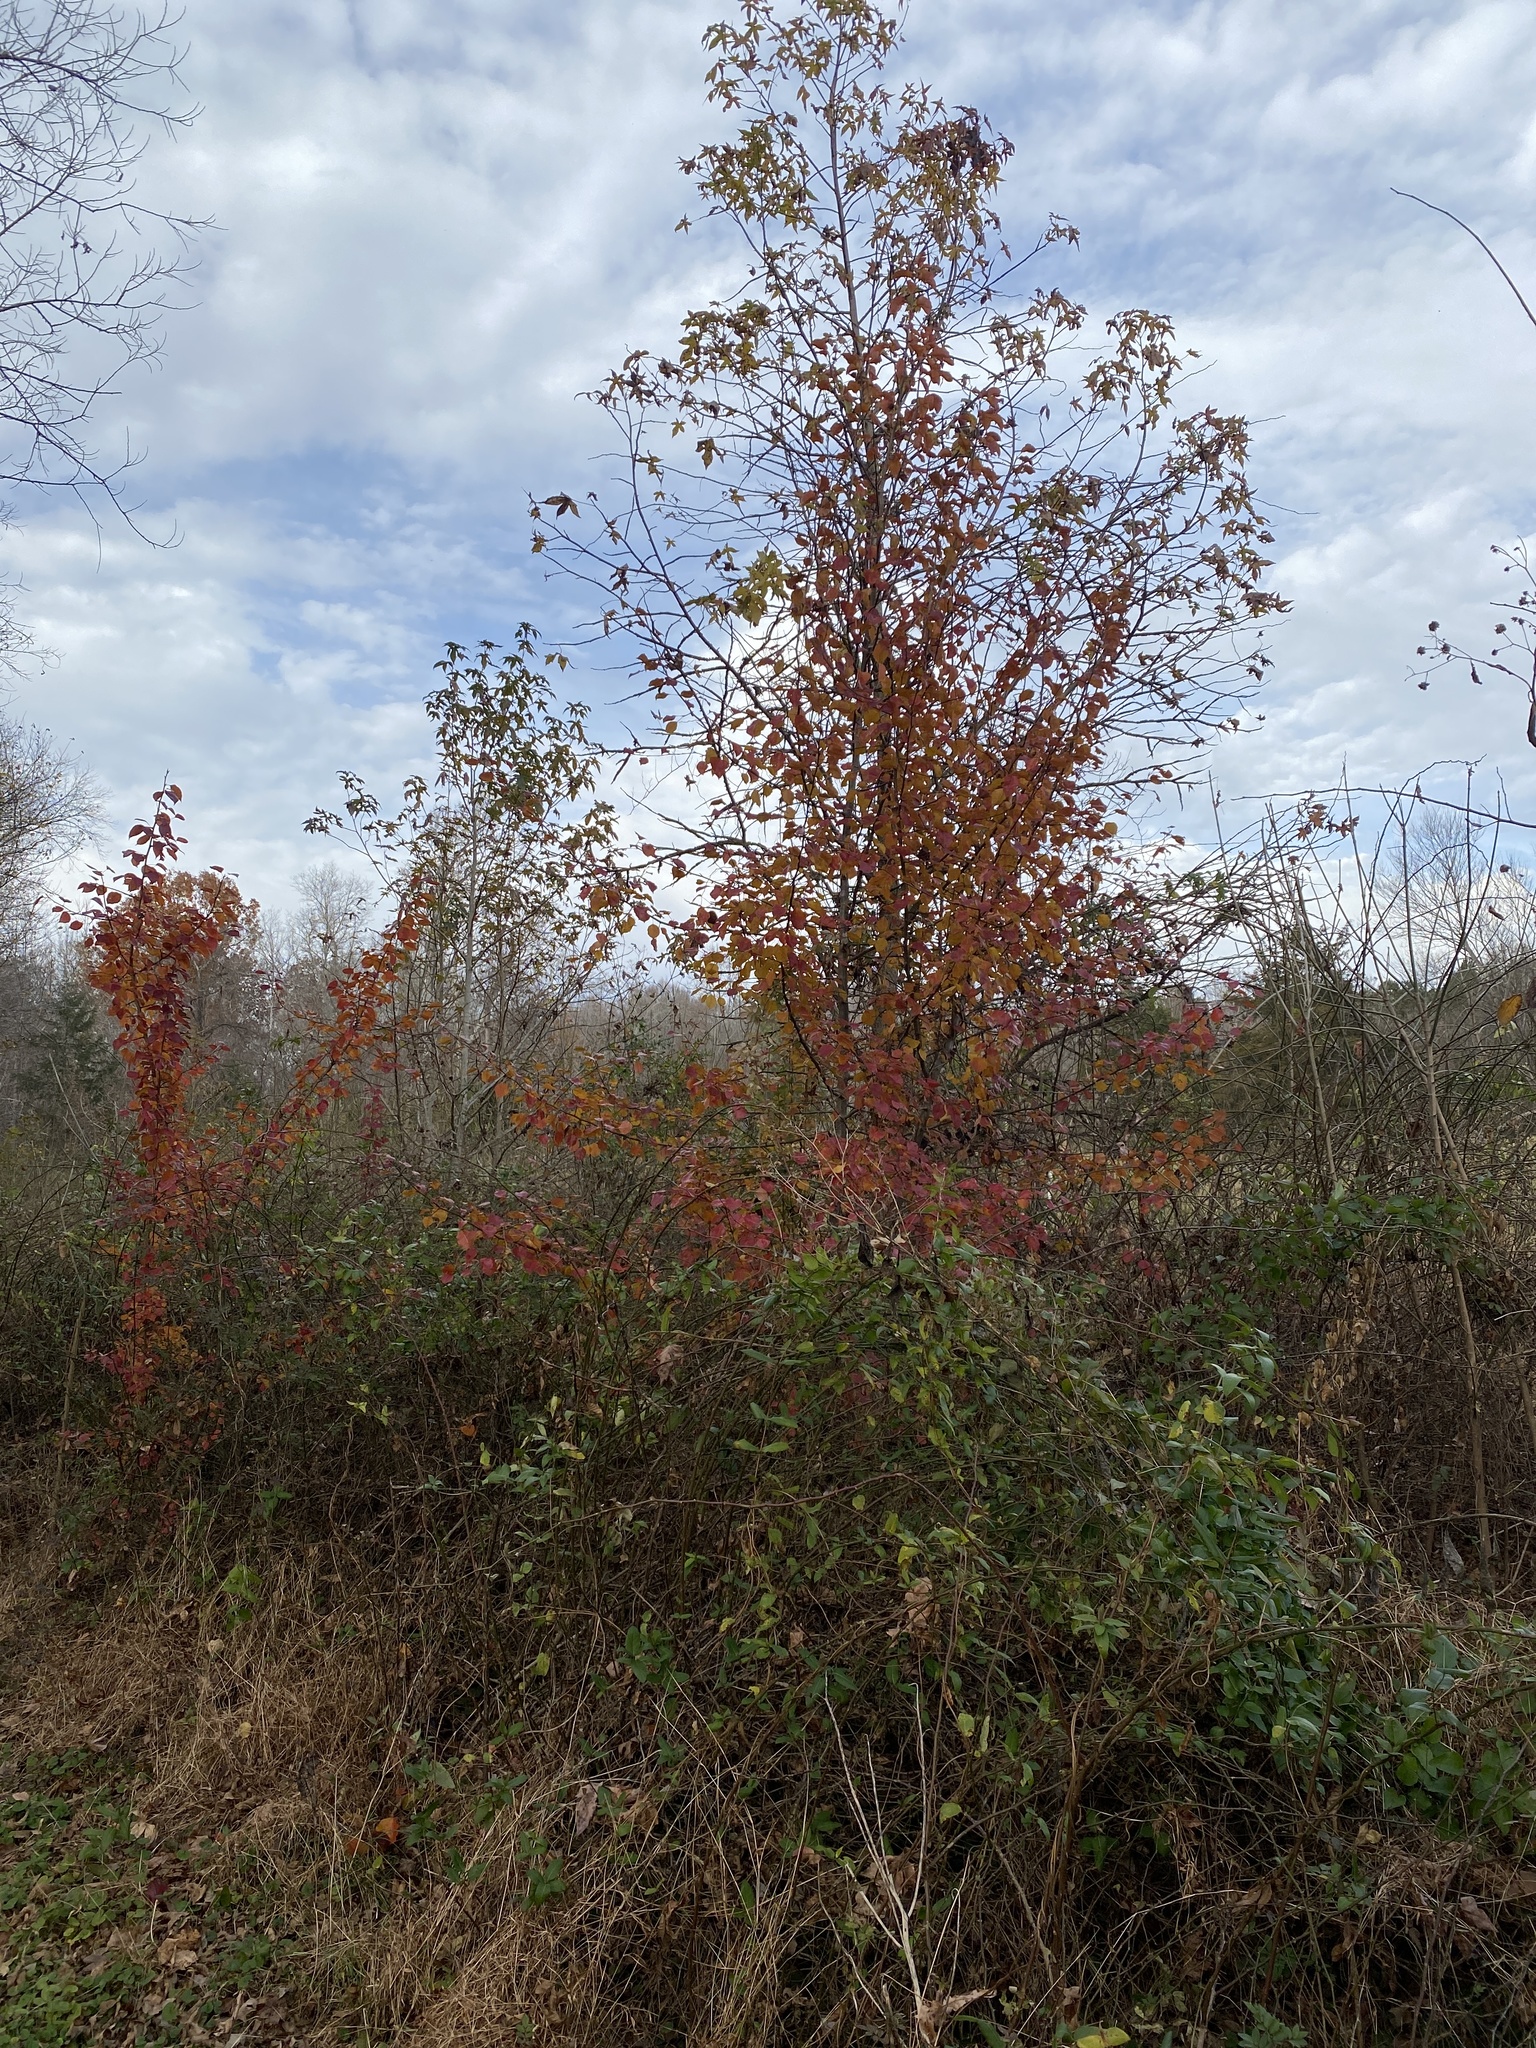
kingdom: Plantae
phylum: Tracheophyta
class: Magnoliopsida
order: Rosales
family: Rosaceae
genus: Pyrus
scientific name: Pyrus calleryana
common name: Callery pear
